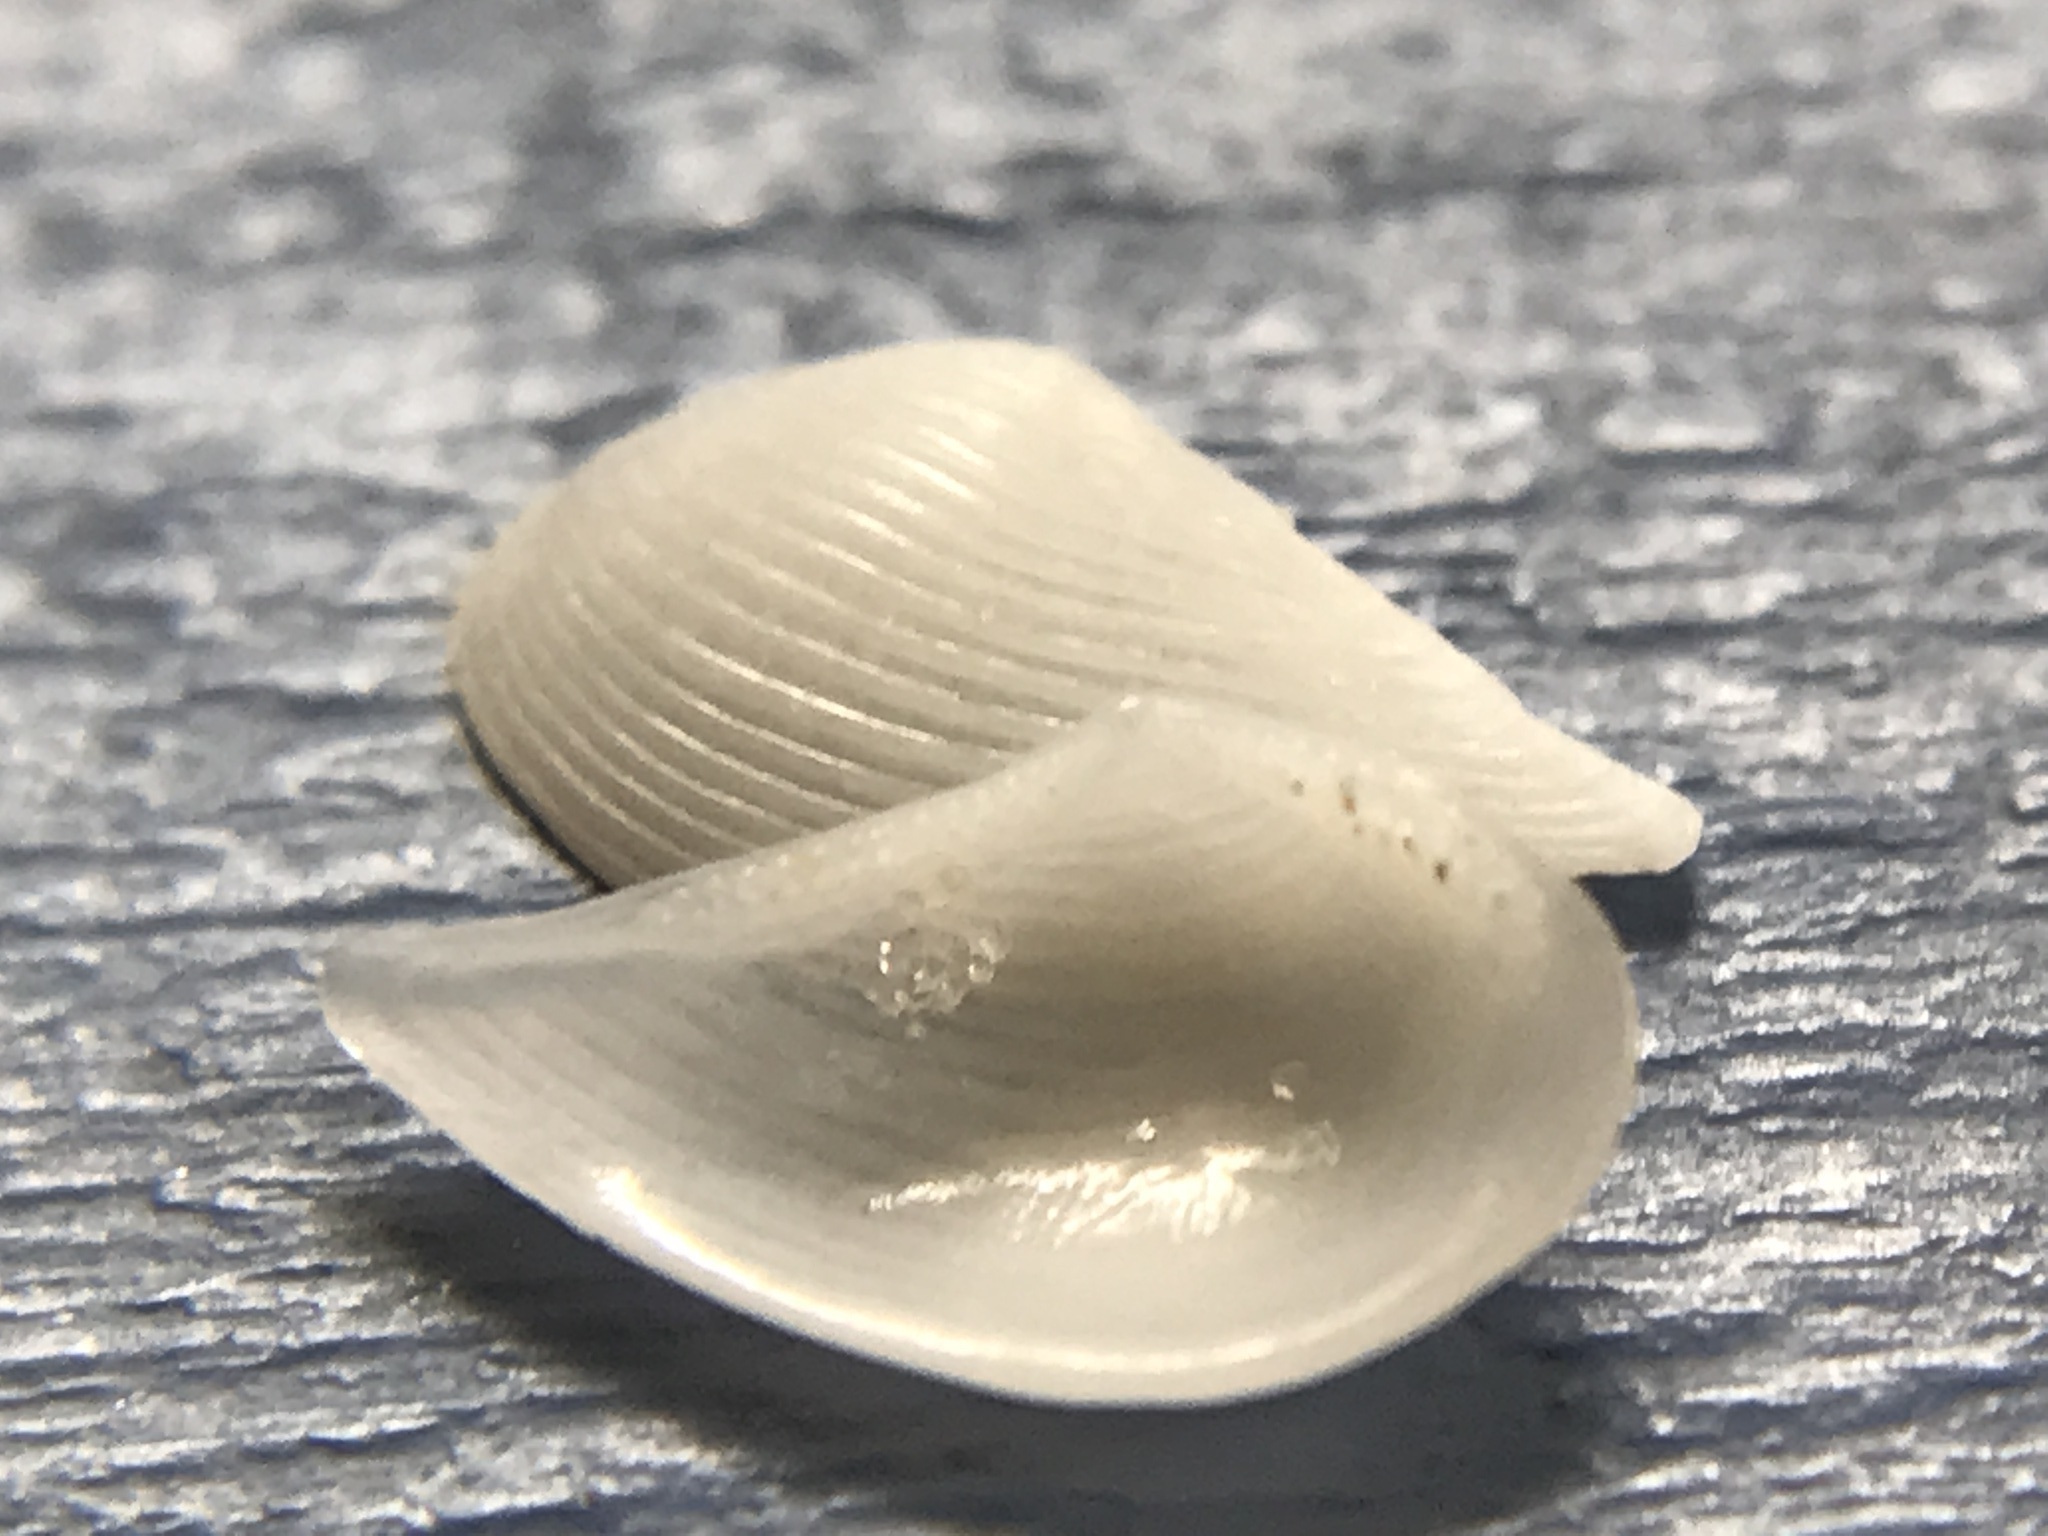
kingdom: Animalia
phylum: Mollusca
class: Bivalvia
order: Nuculanida
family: Nuculanidae
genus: Nuculana
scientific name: Nuculana acuta
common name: Pointed nut clam
